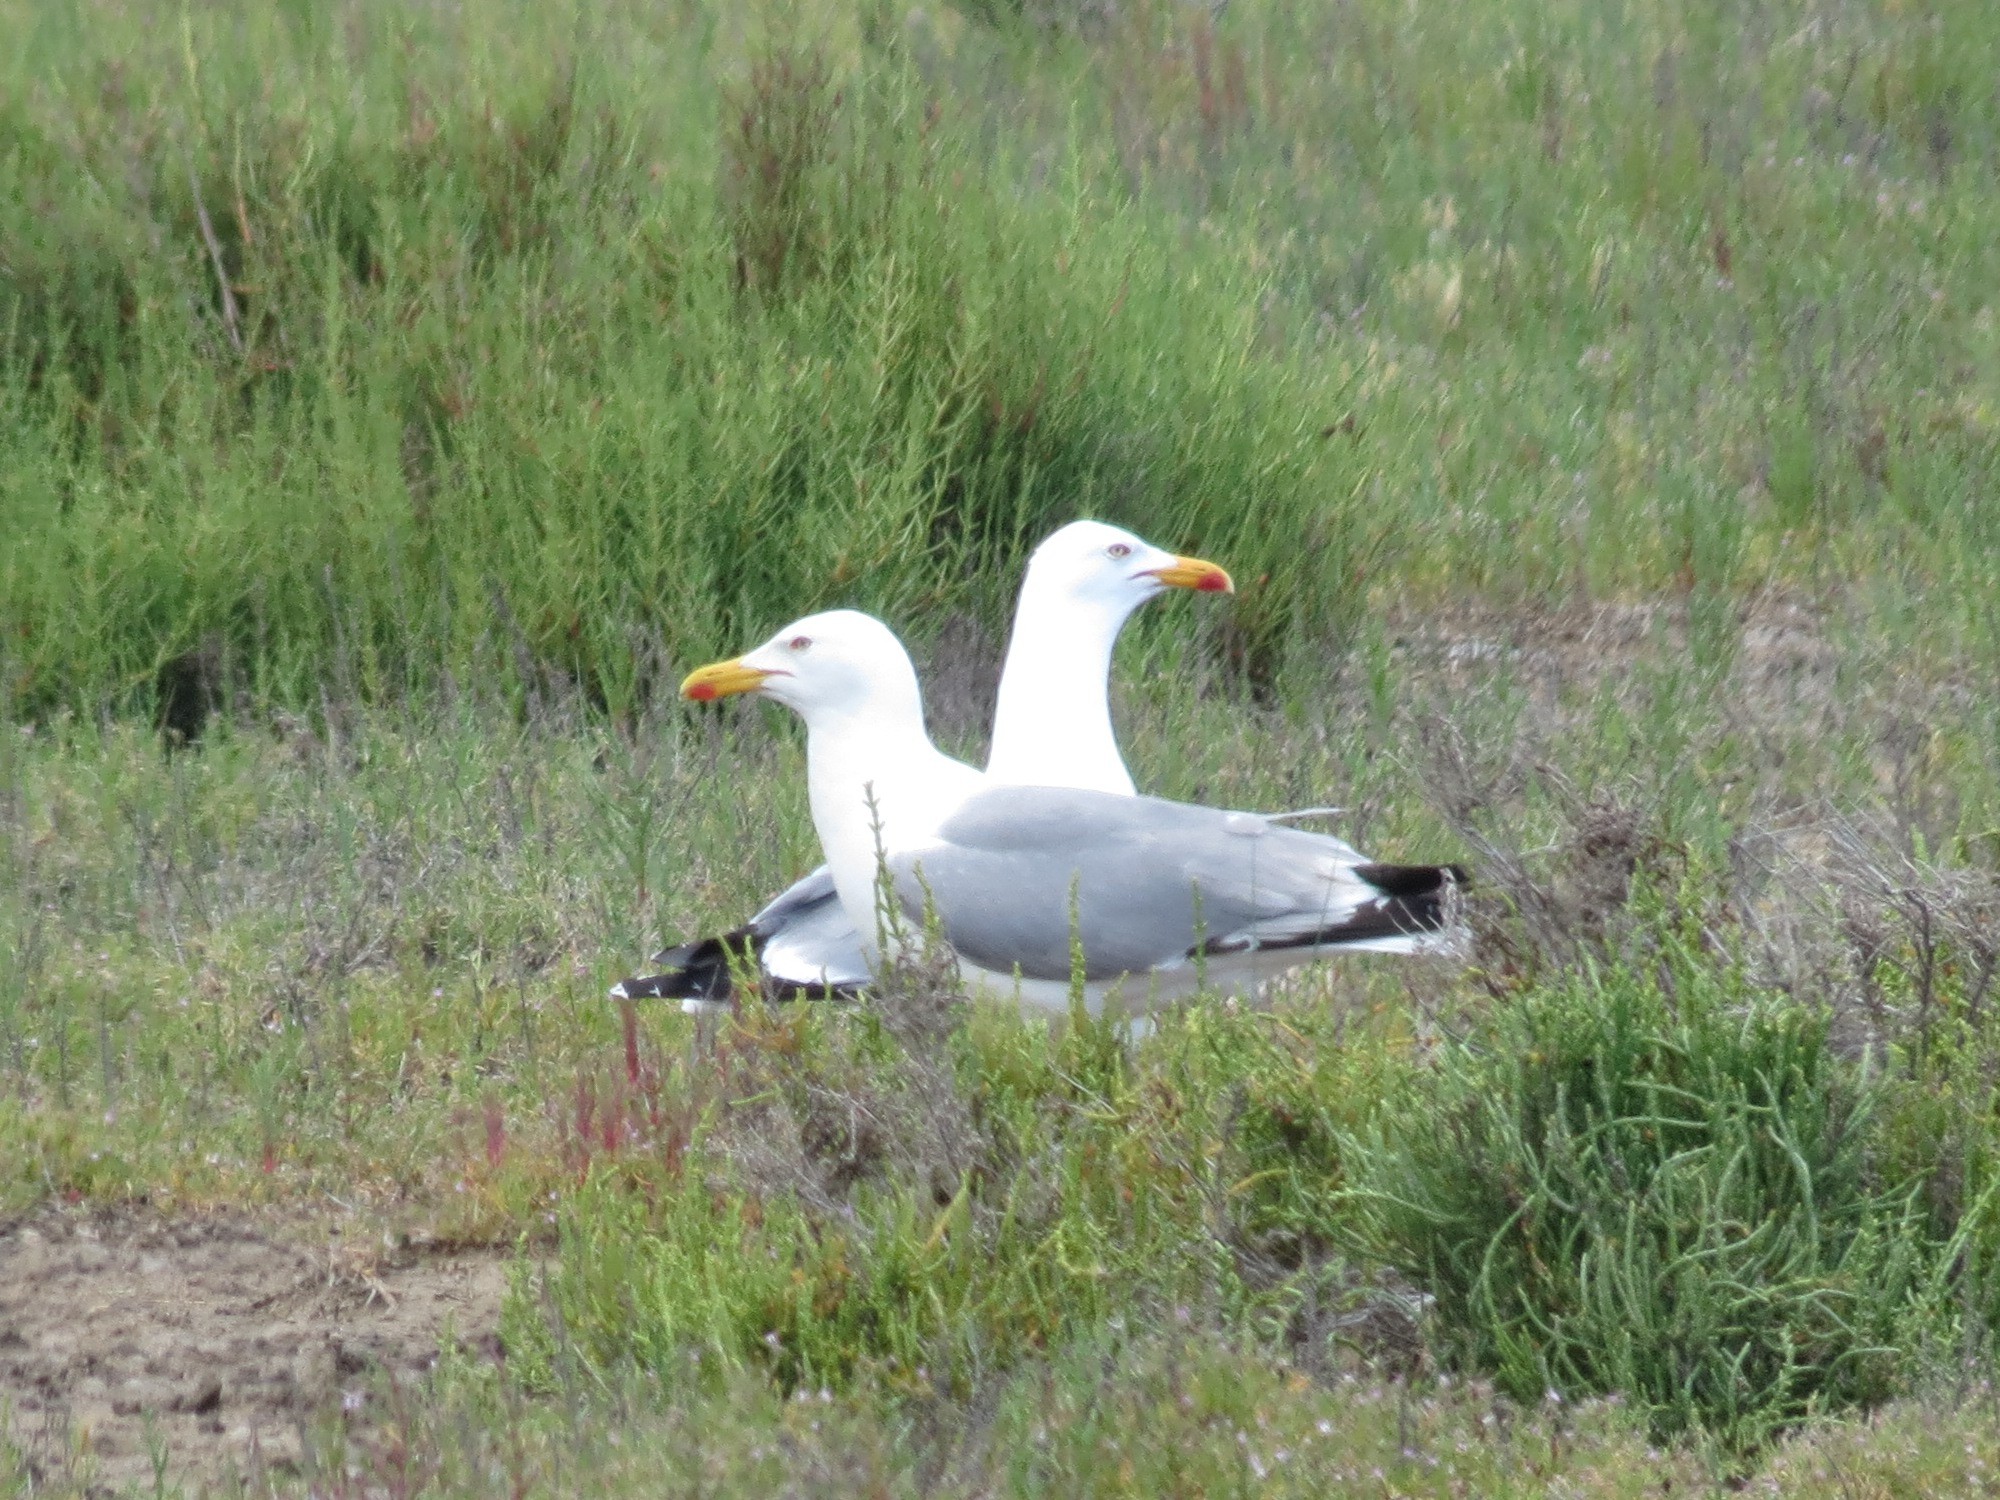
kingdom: Animalia
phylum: Chordata
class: Aves
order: Charadriiformes
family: Laridae
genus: Larus
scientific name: Larus michahellis
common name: Yellow-legged gull
